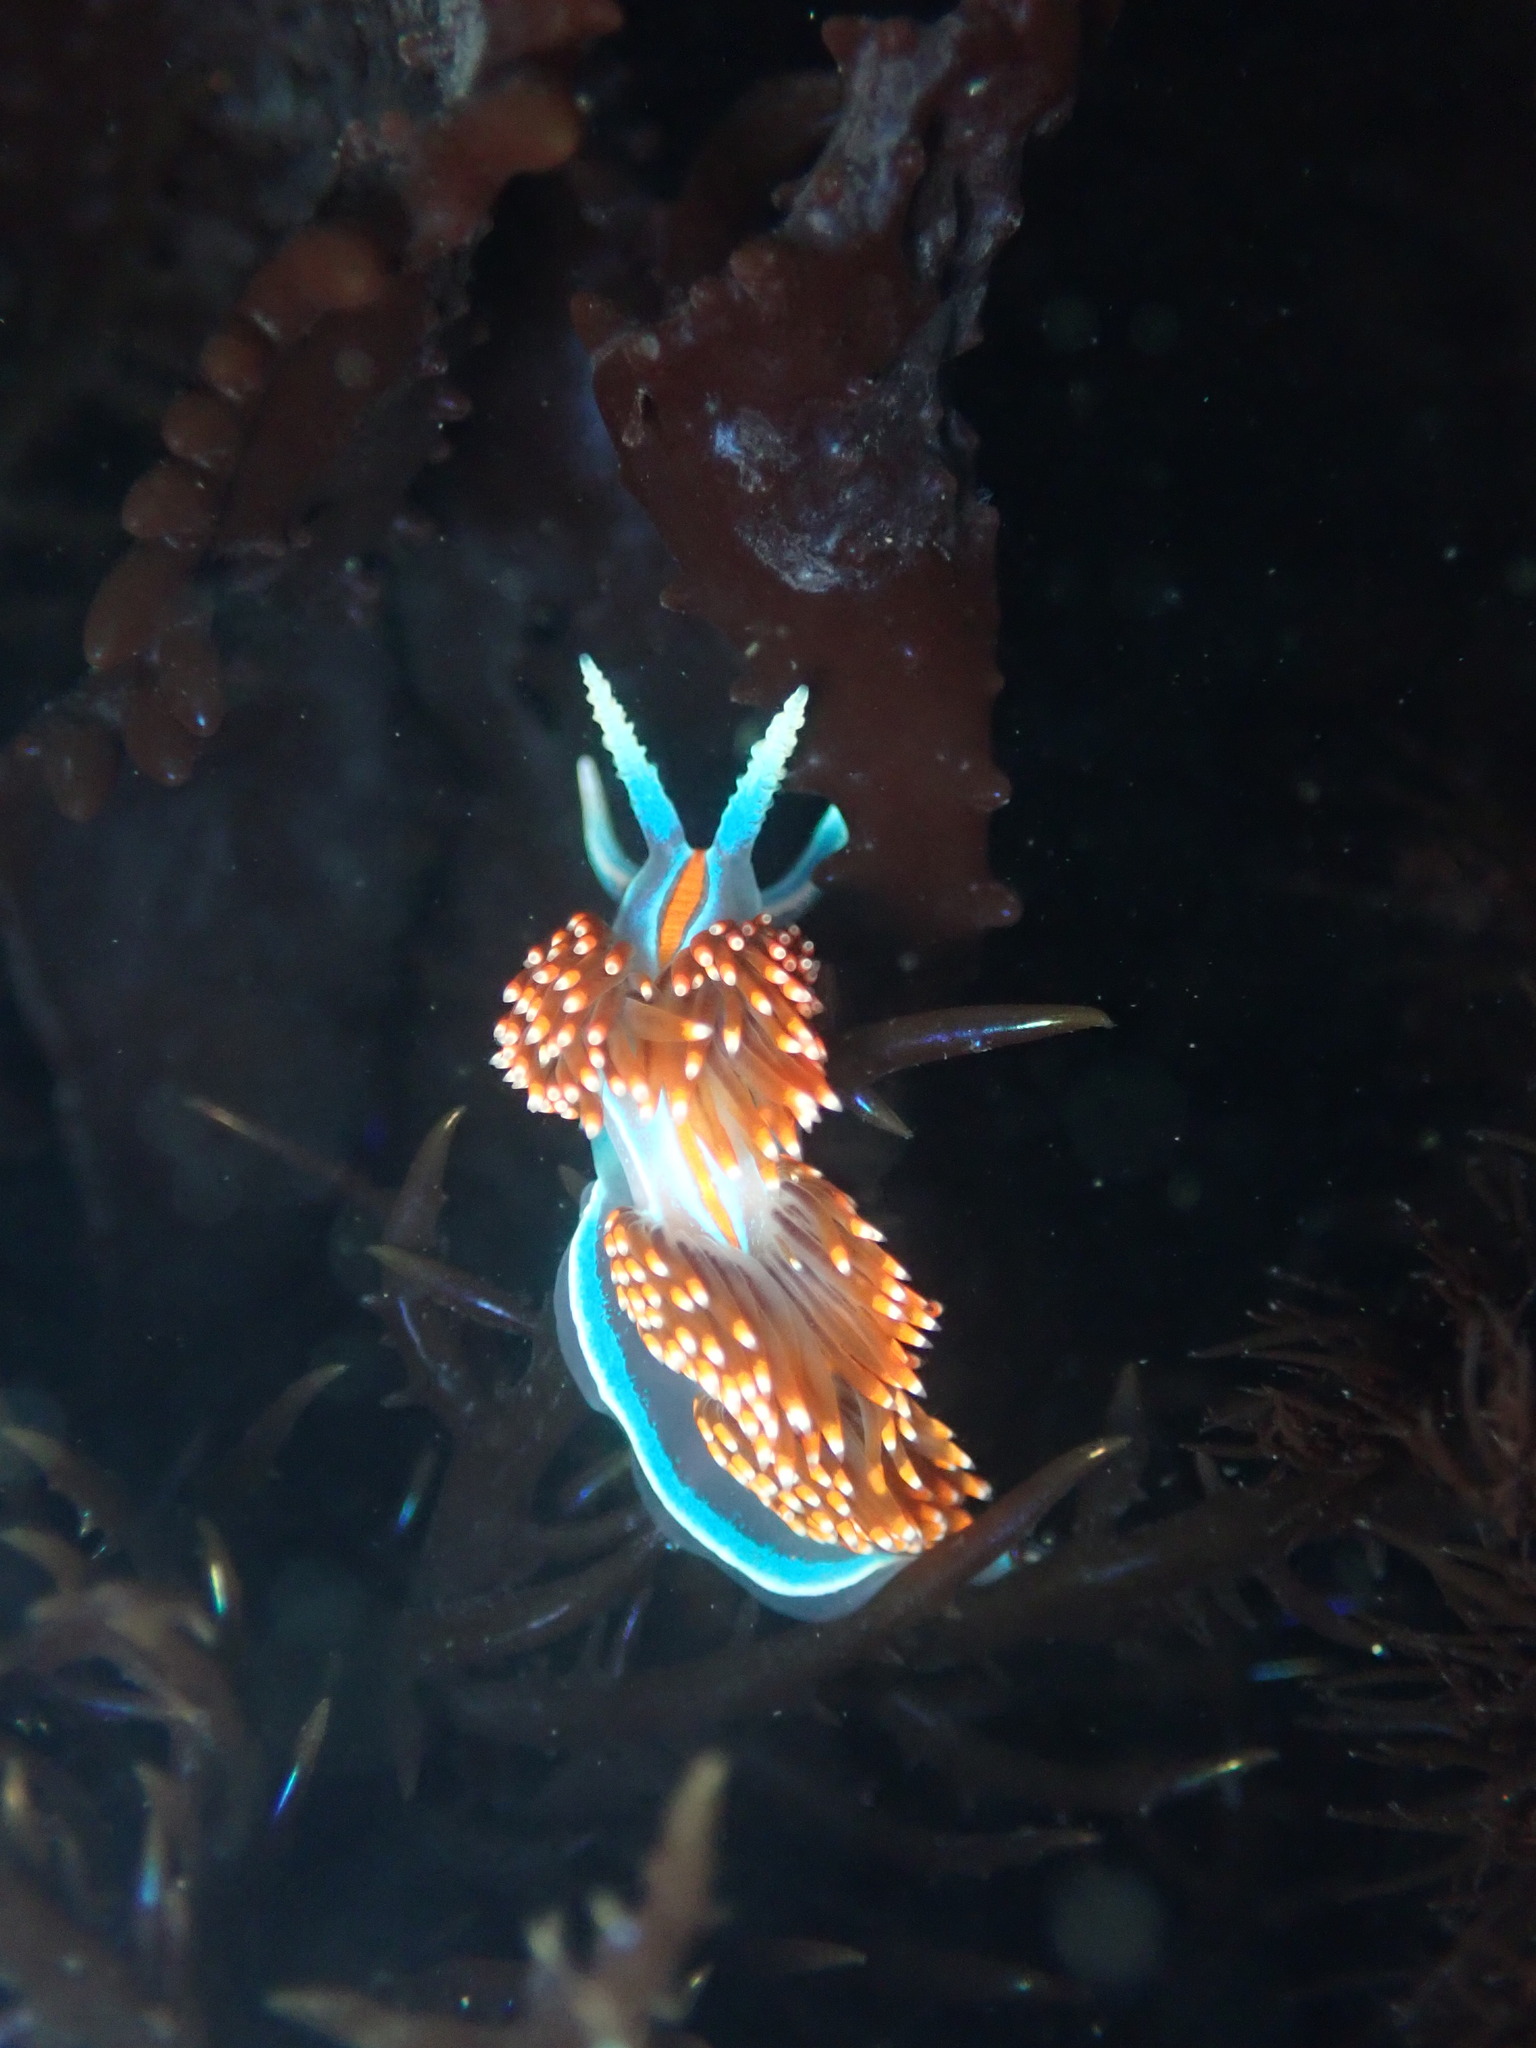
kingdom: Animalia
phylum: Mollusca
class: Gastropoda
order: Nudibranchia
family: Myrrhinidae
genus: Hermissenda
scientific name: Hermissenda opalescens
